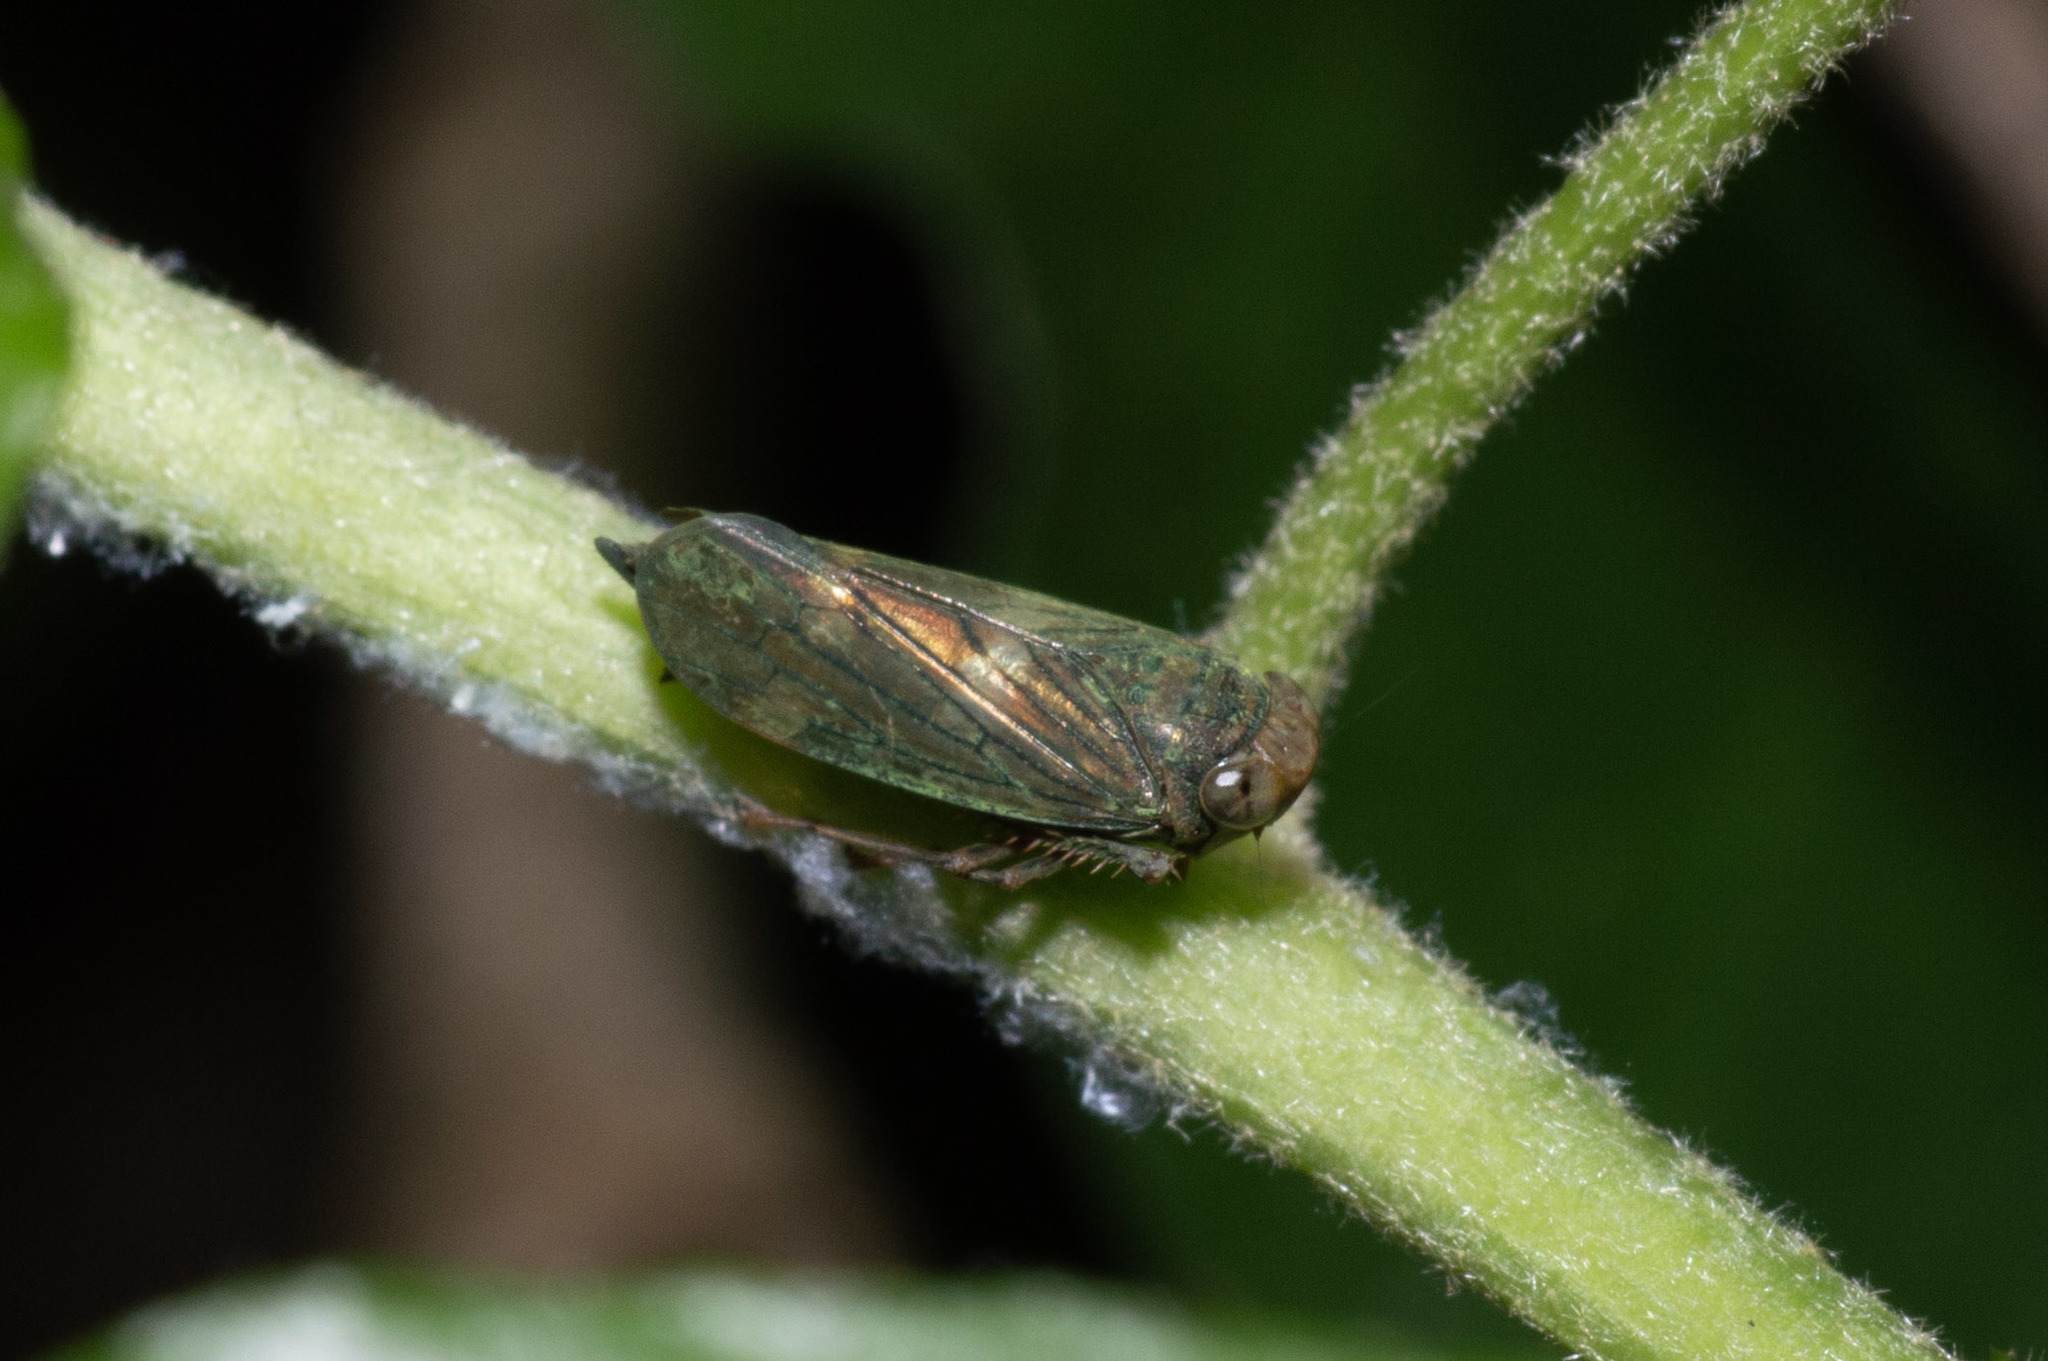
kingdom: Animalia
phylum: Arthropoda
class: Insecta
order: Hemiptera
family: Cicadellidae
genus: Jikradia
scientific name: Jikradia olitoria
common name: Coppery leafhopper
